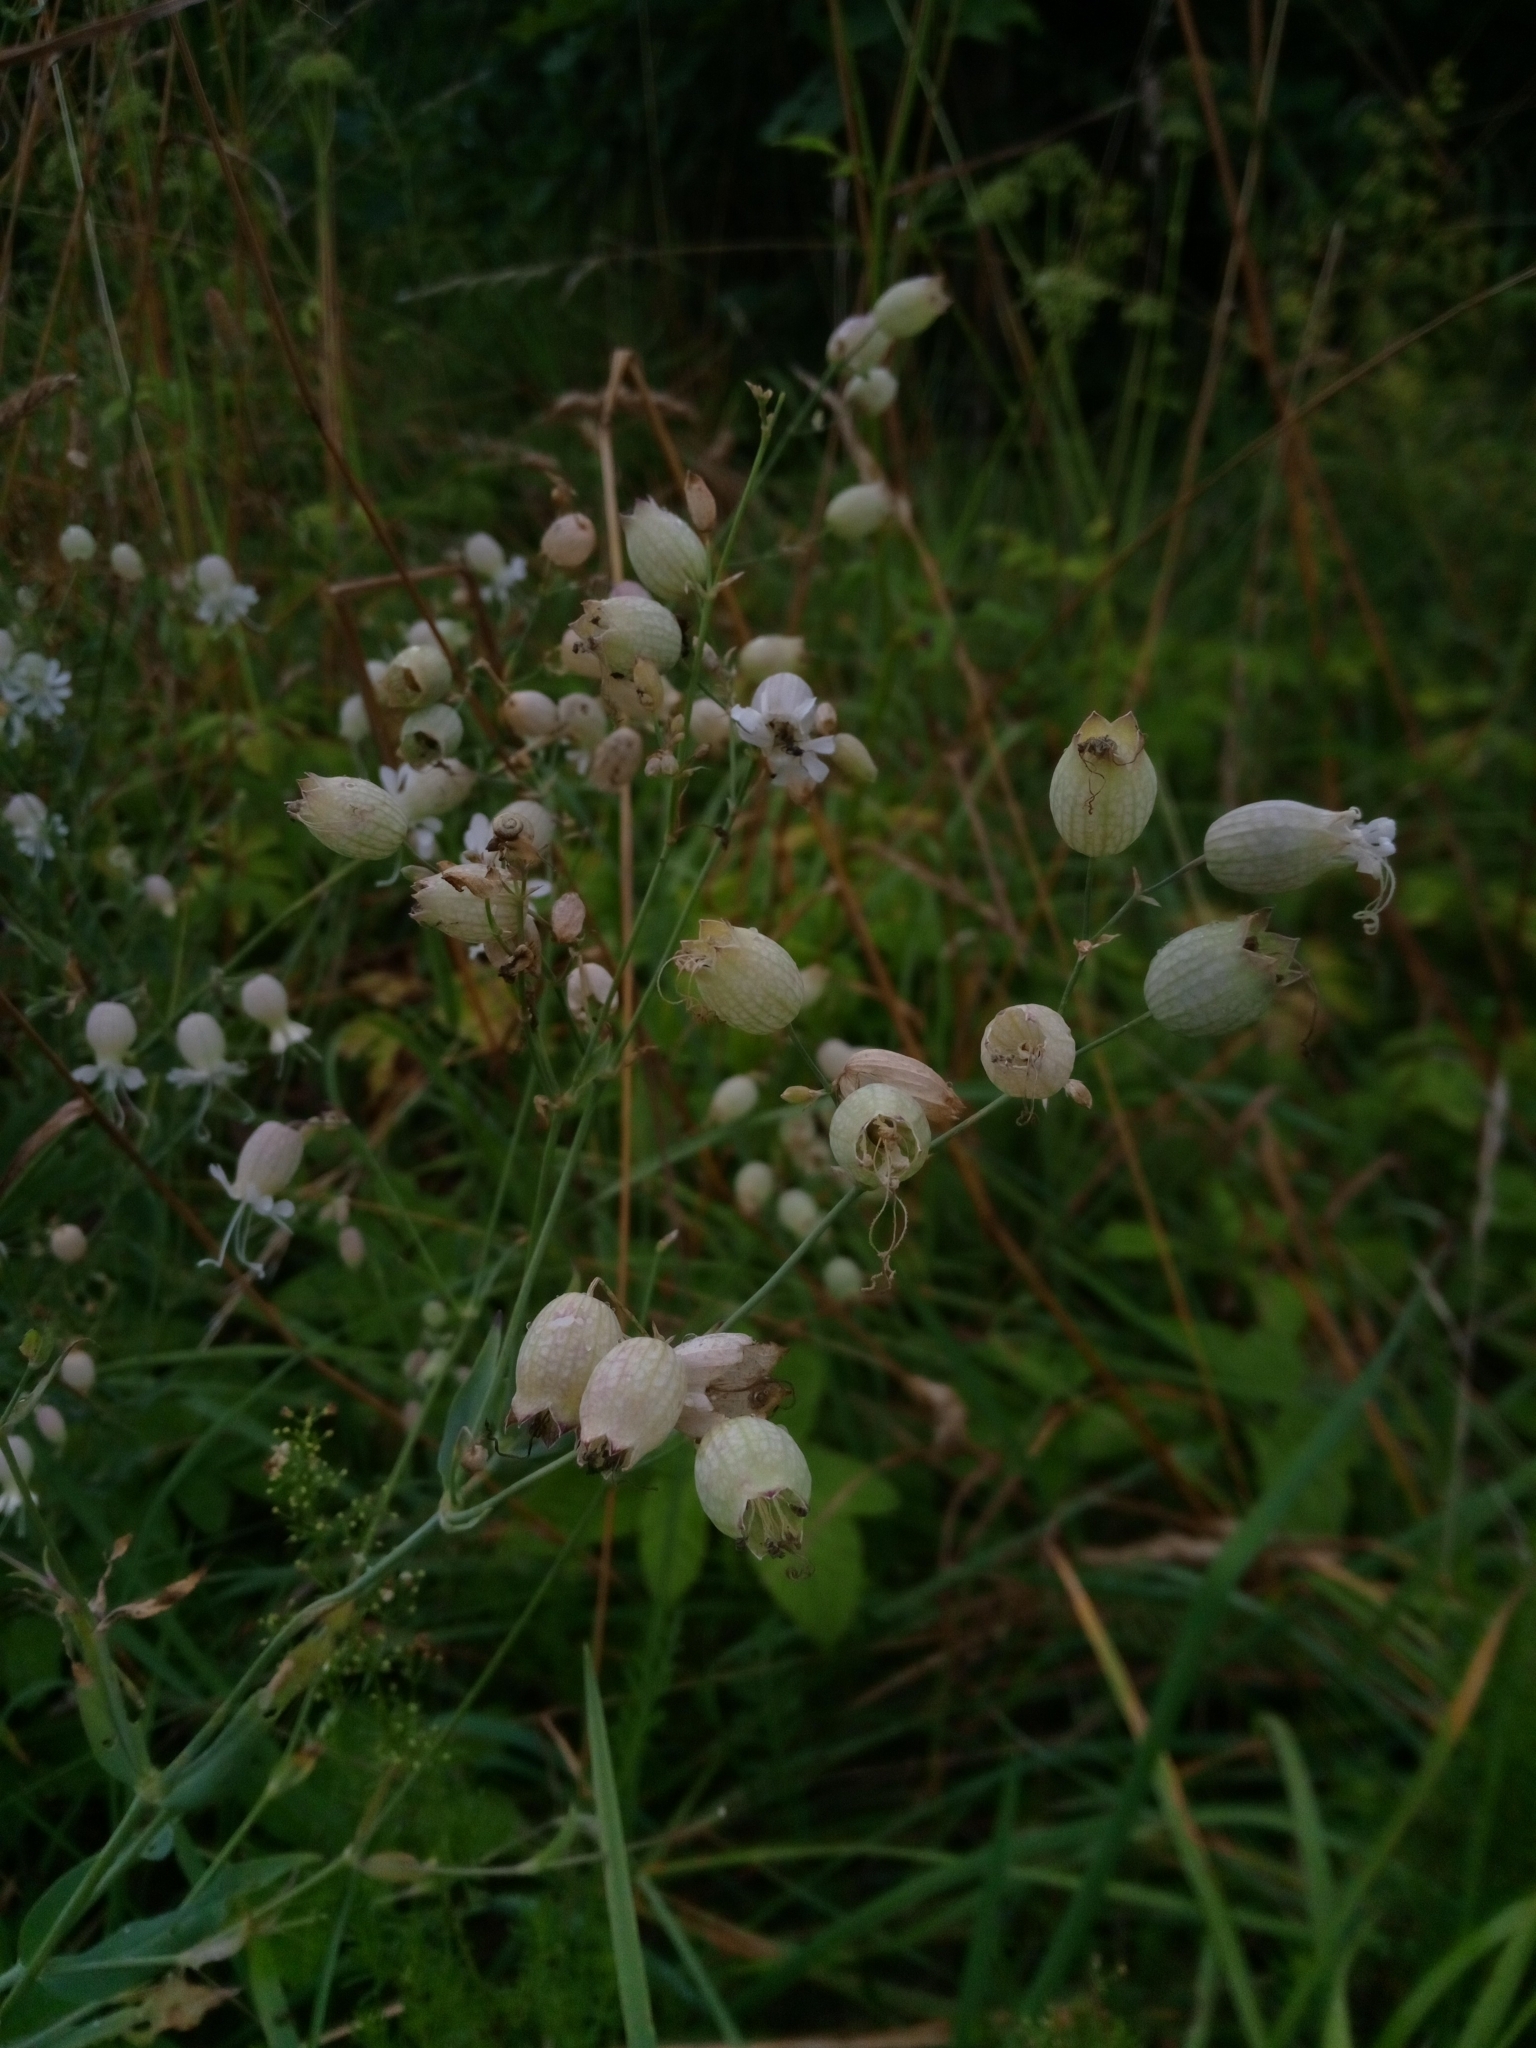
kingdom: Plantae
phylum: Tracheophyta
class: Magnoliopsida
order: Caryophyllales
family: Caryophyllaceae
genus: Silene
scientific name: Silene vulgaris
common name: Bladder campion
